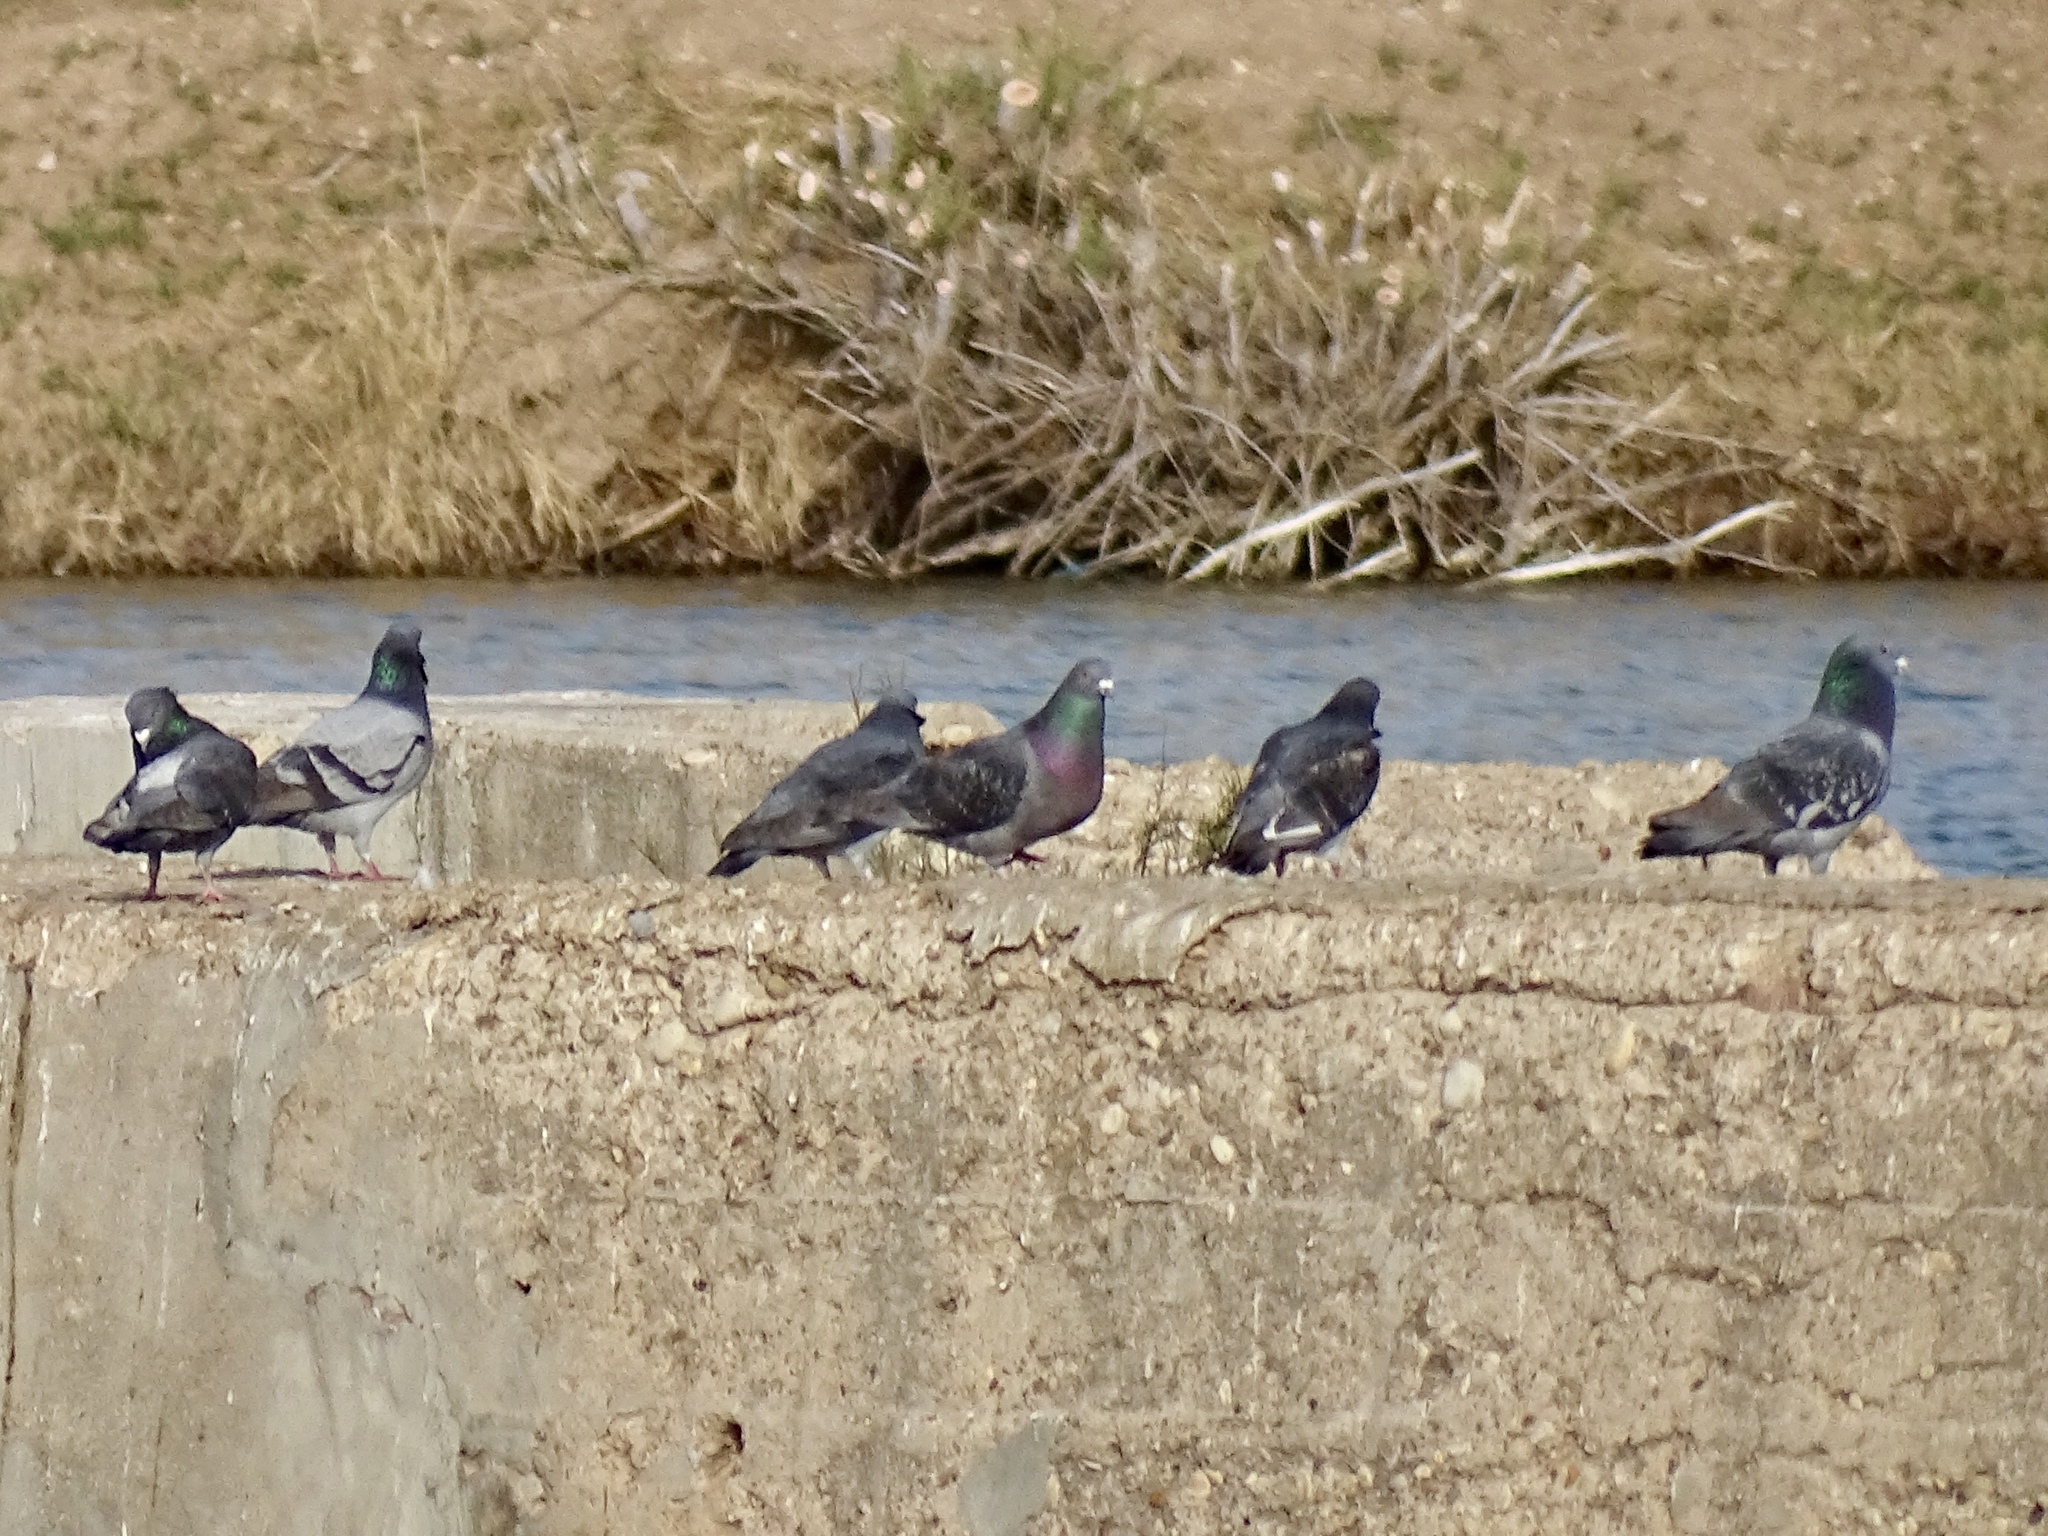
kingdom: Animalia
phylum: Chordata
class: Aves
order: Columbiformes
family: Columbidae
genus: Columba
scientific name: Columba livia
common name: Rock pigeon
